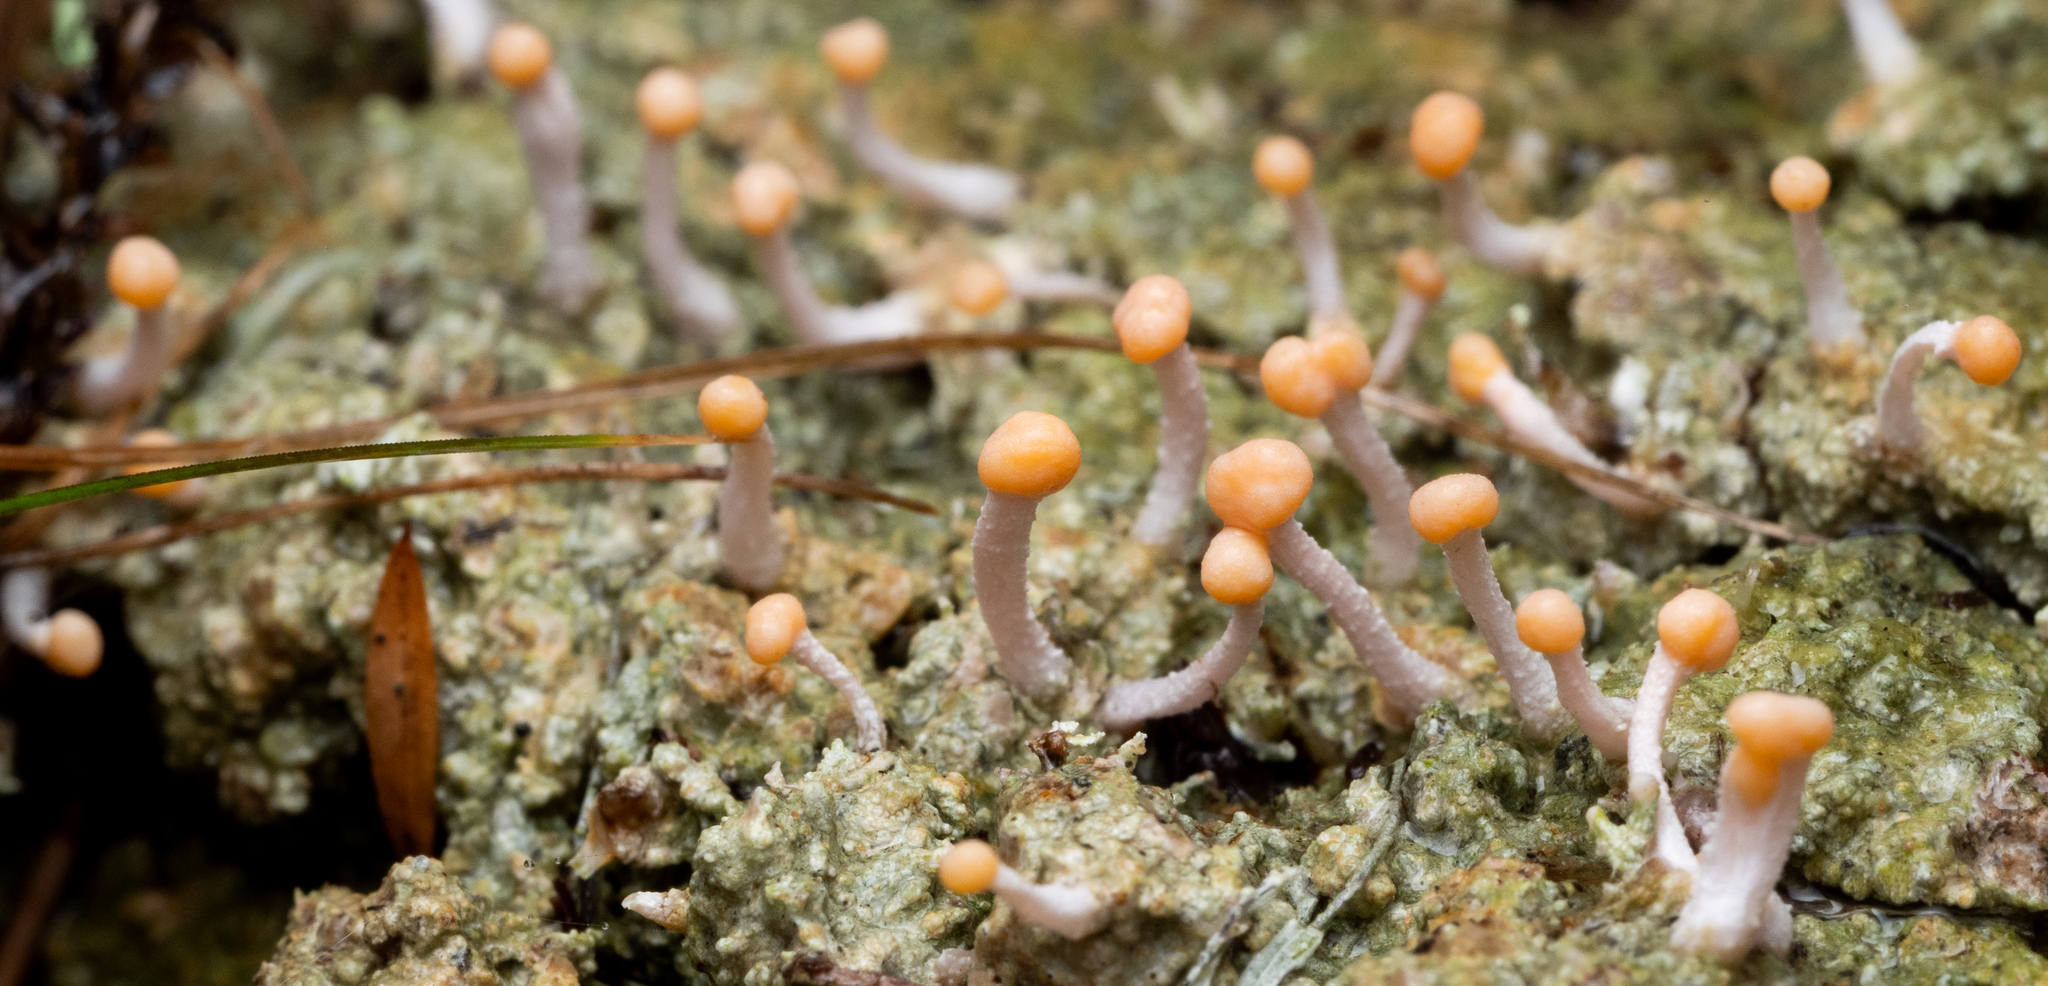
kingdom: Fungi
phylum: Ascomycota
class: Lecanoromycetes
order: Pertusariales
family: Icmadophilaceae
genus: Dibaeis
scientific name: Dibaeis arcuata
